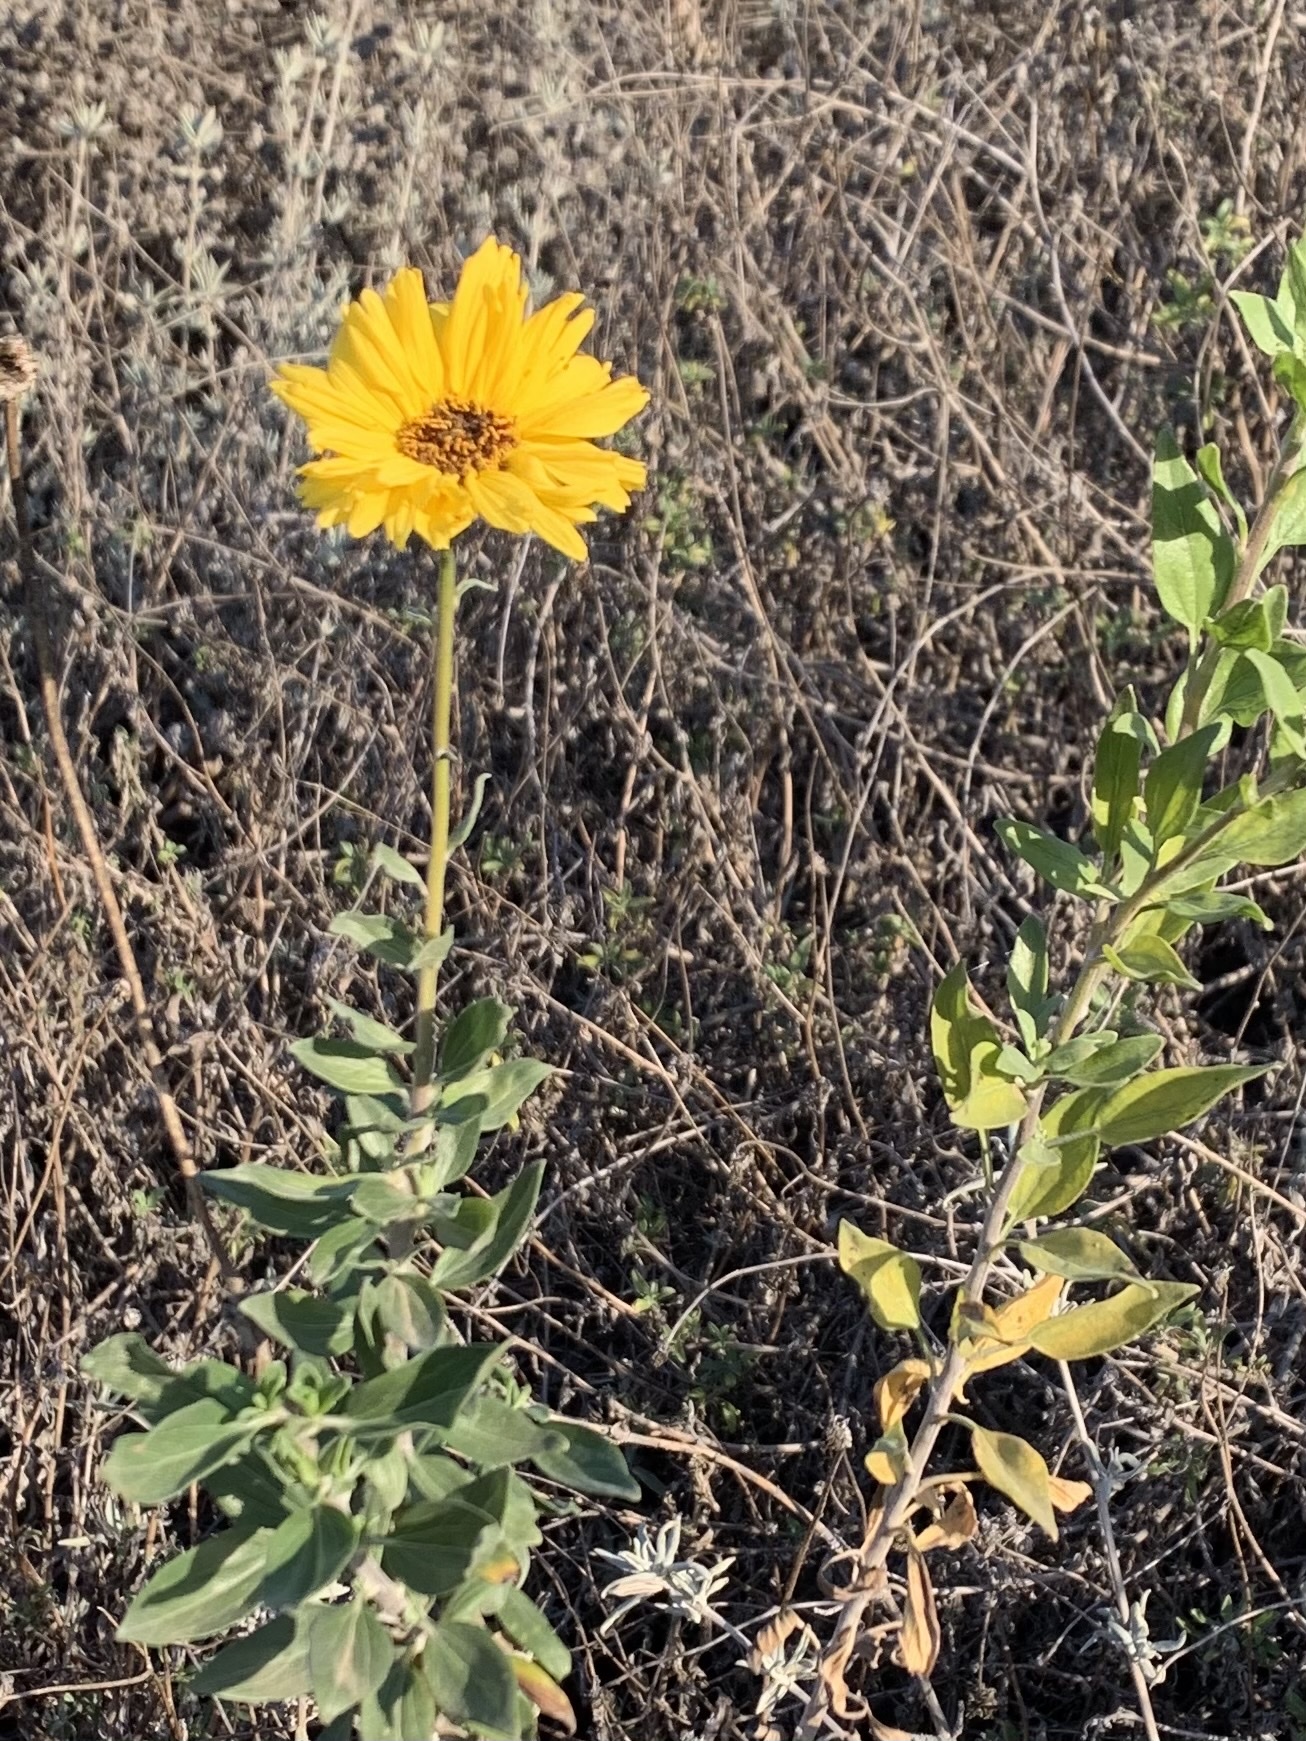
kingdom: Plantae
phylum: Tracheophyta
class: Magnoliopsida
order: Asterales
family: Asteraceae
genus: Encelia
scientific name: Encelia californica
